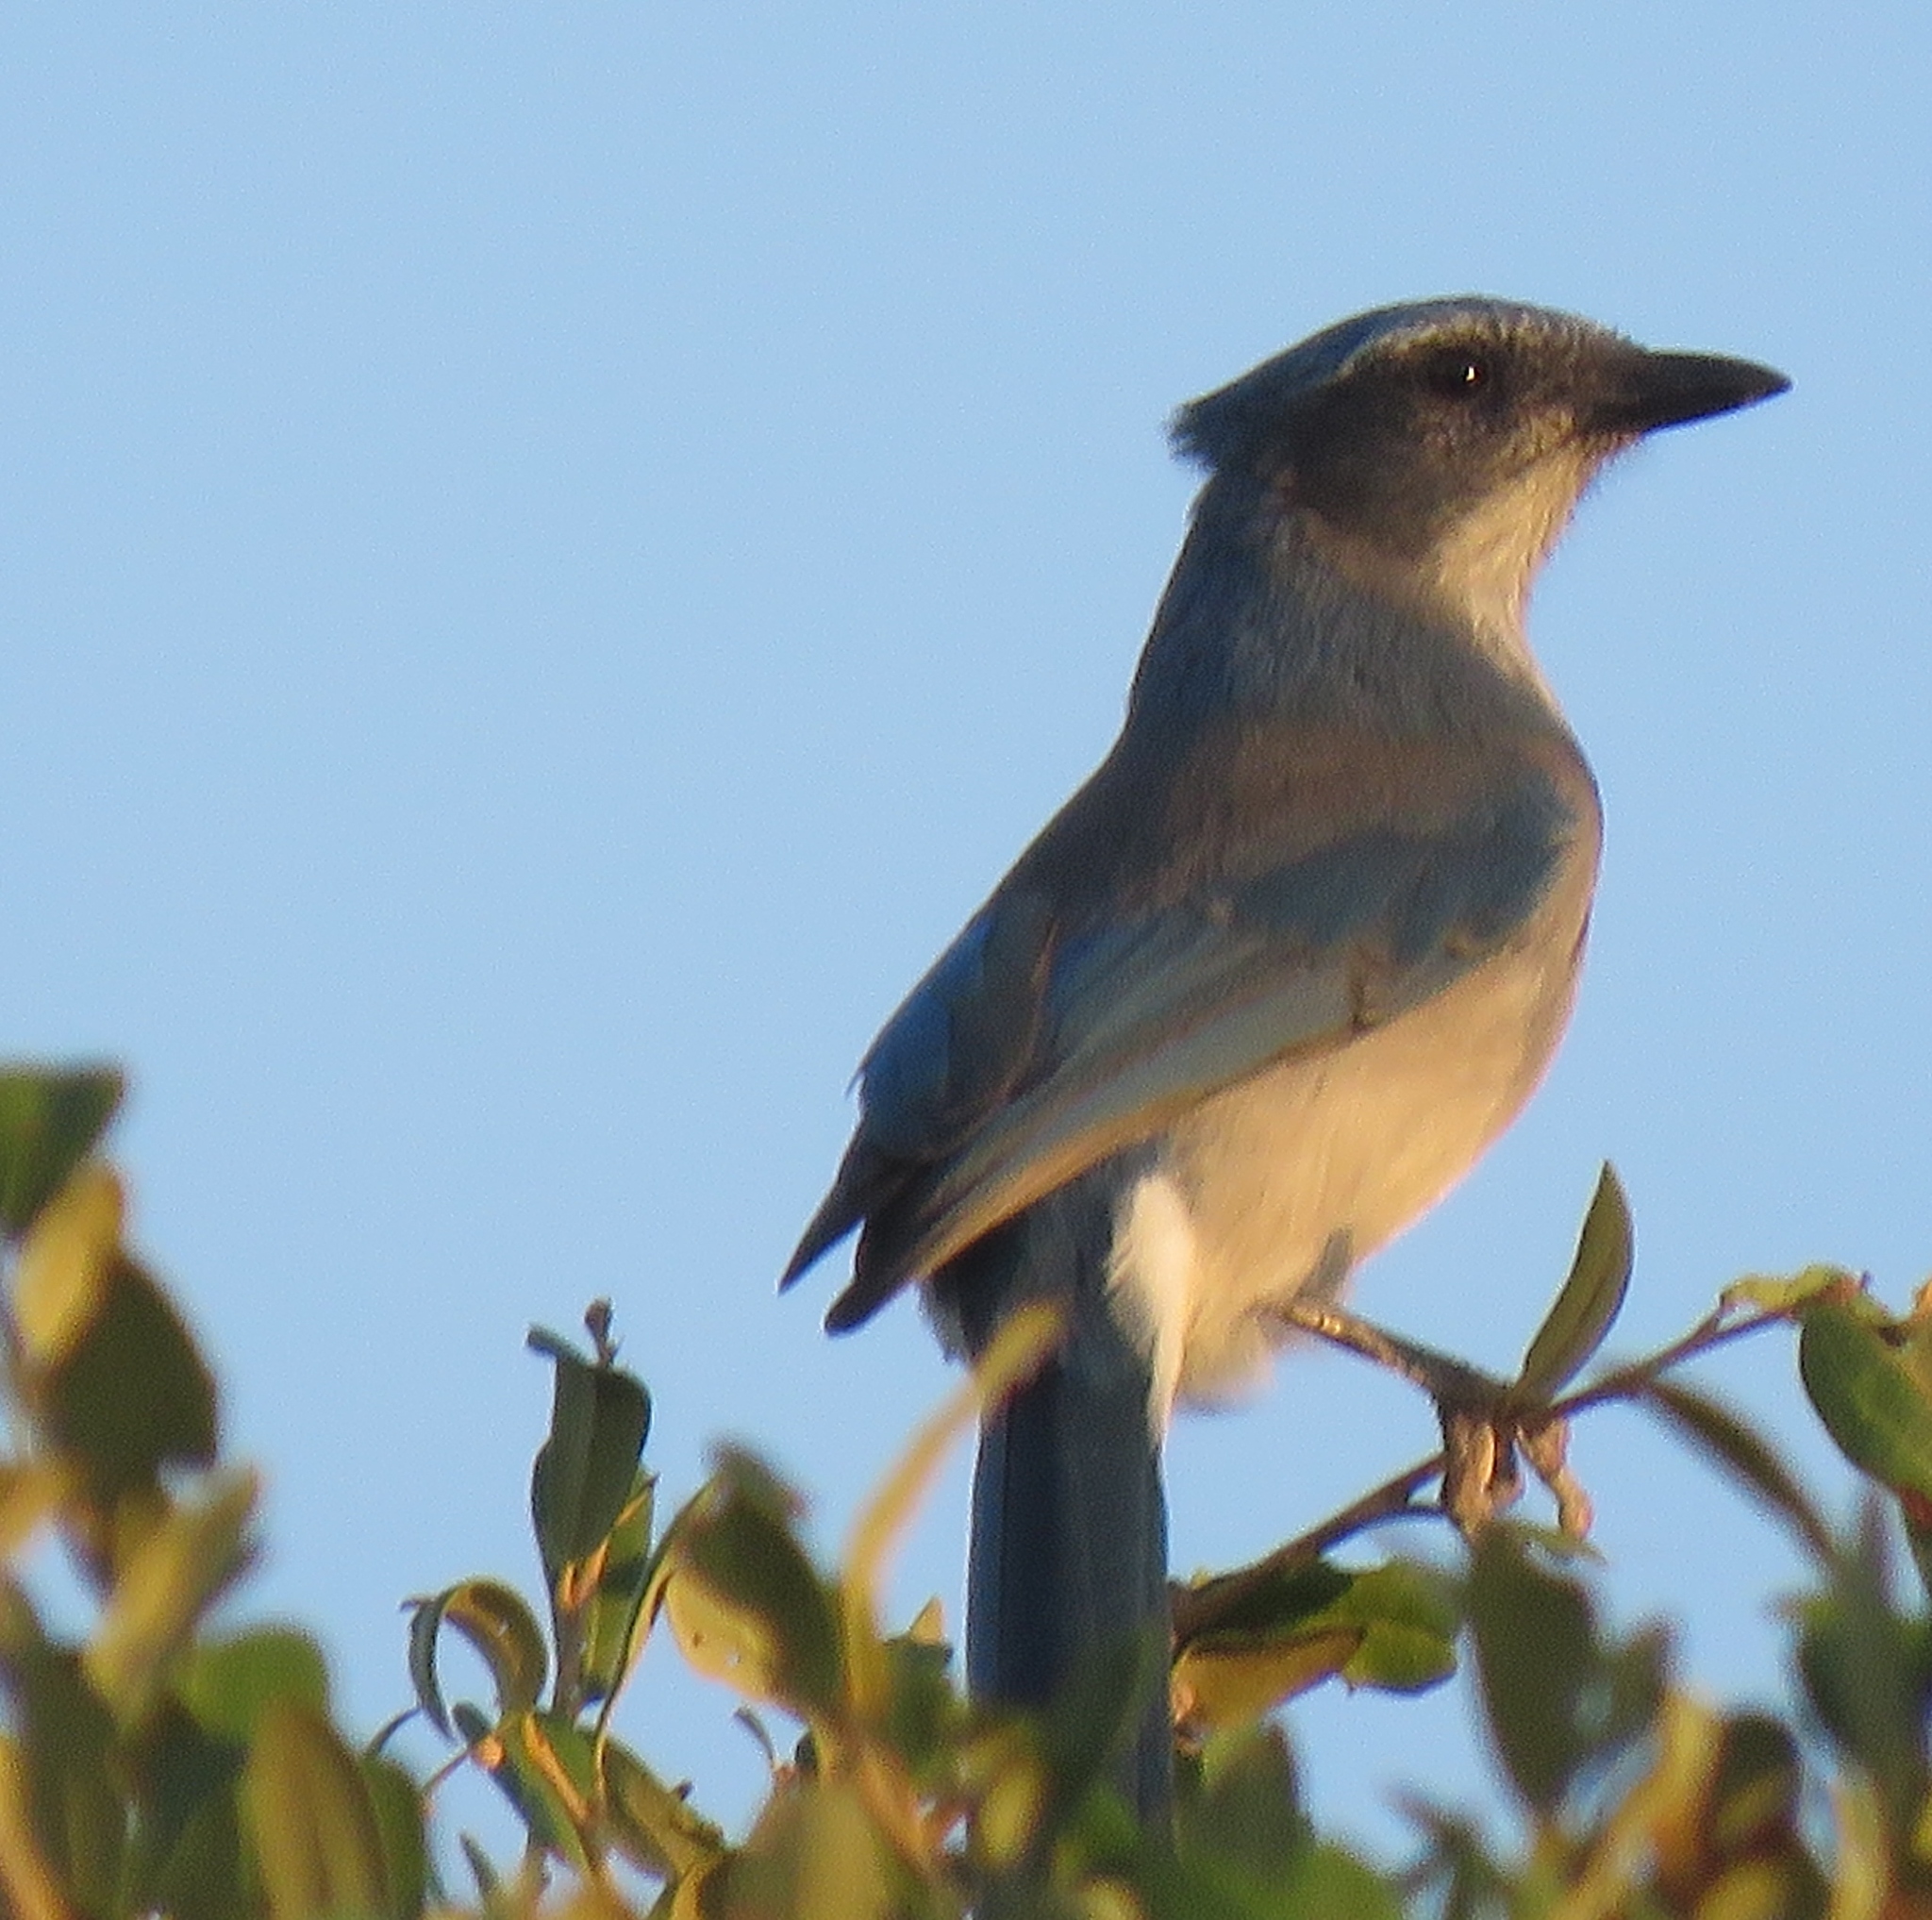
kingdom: Animalia
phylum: Chordata
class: Aves
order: Passeriformes
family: Corvidae
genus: Aphelocoma
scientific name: Aphelocoma woodhouseii
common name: Woodhouse's scrub-jay
